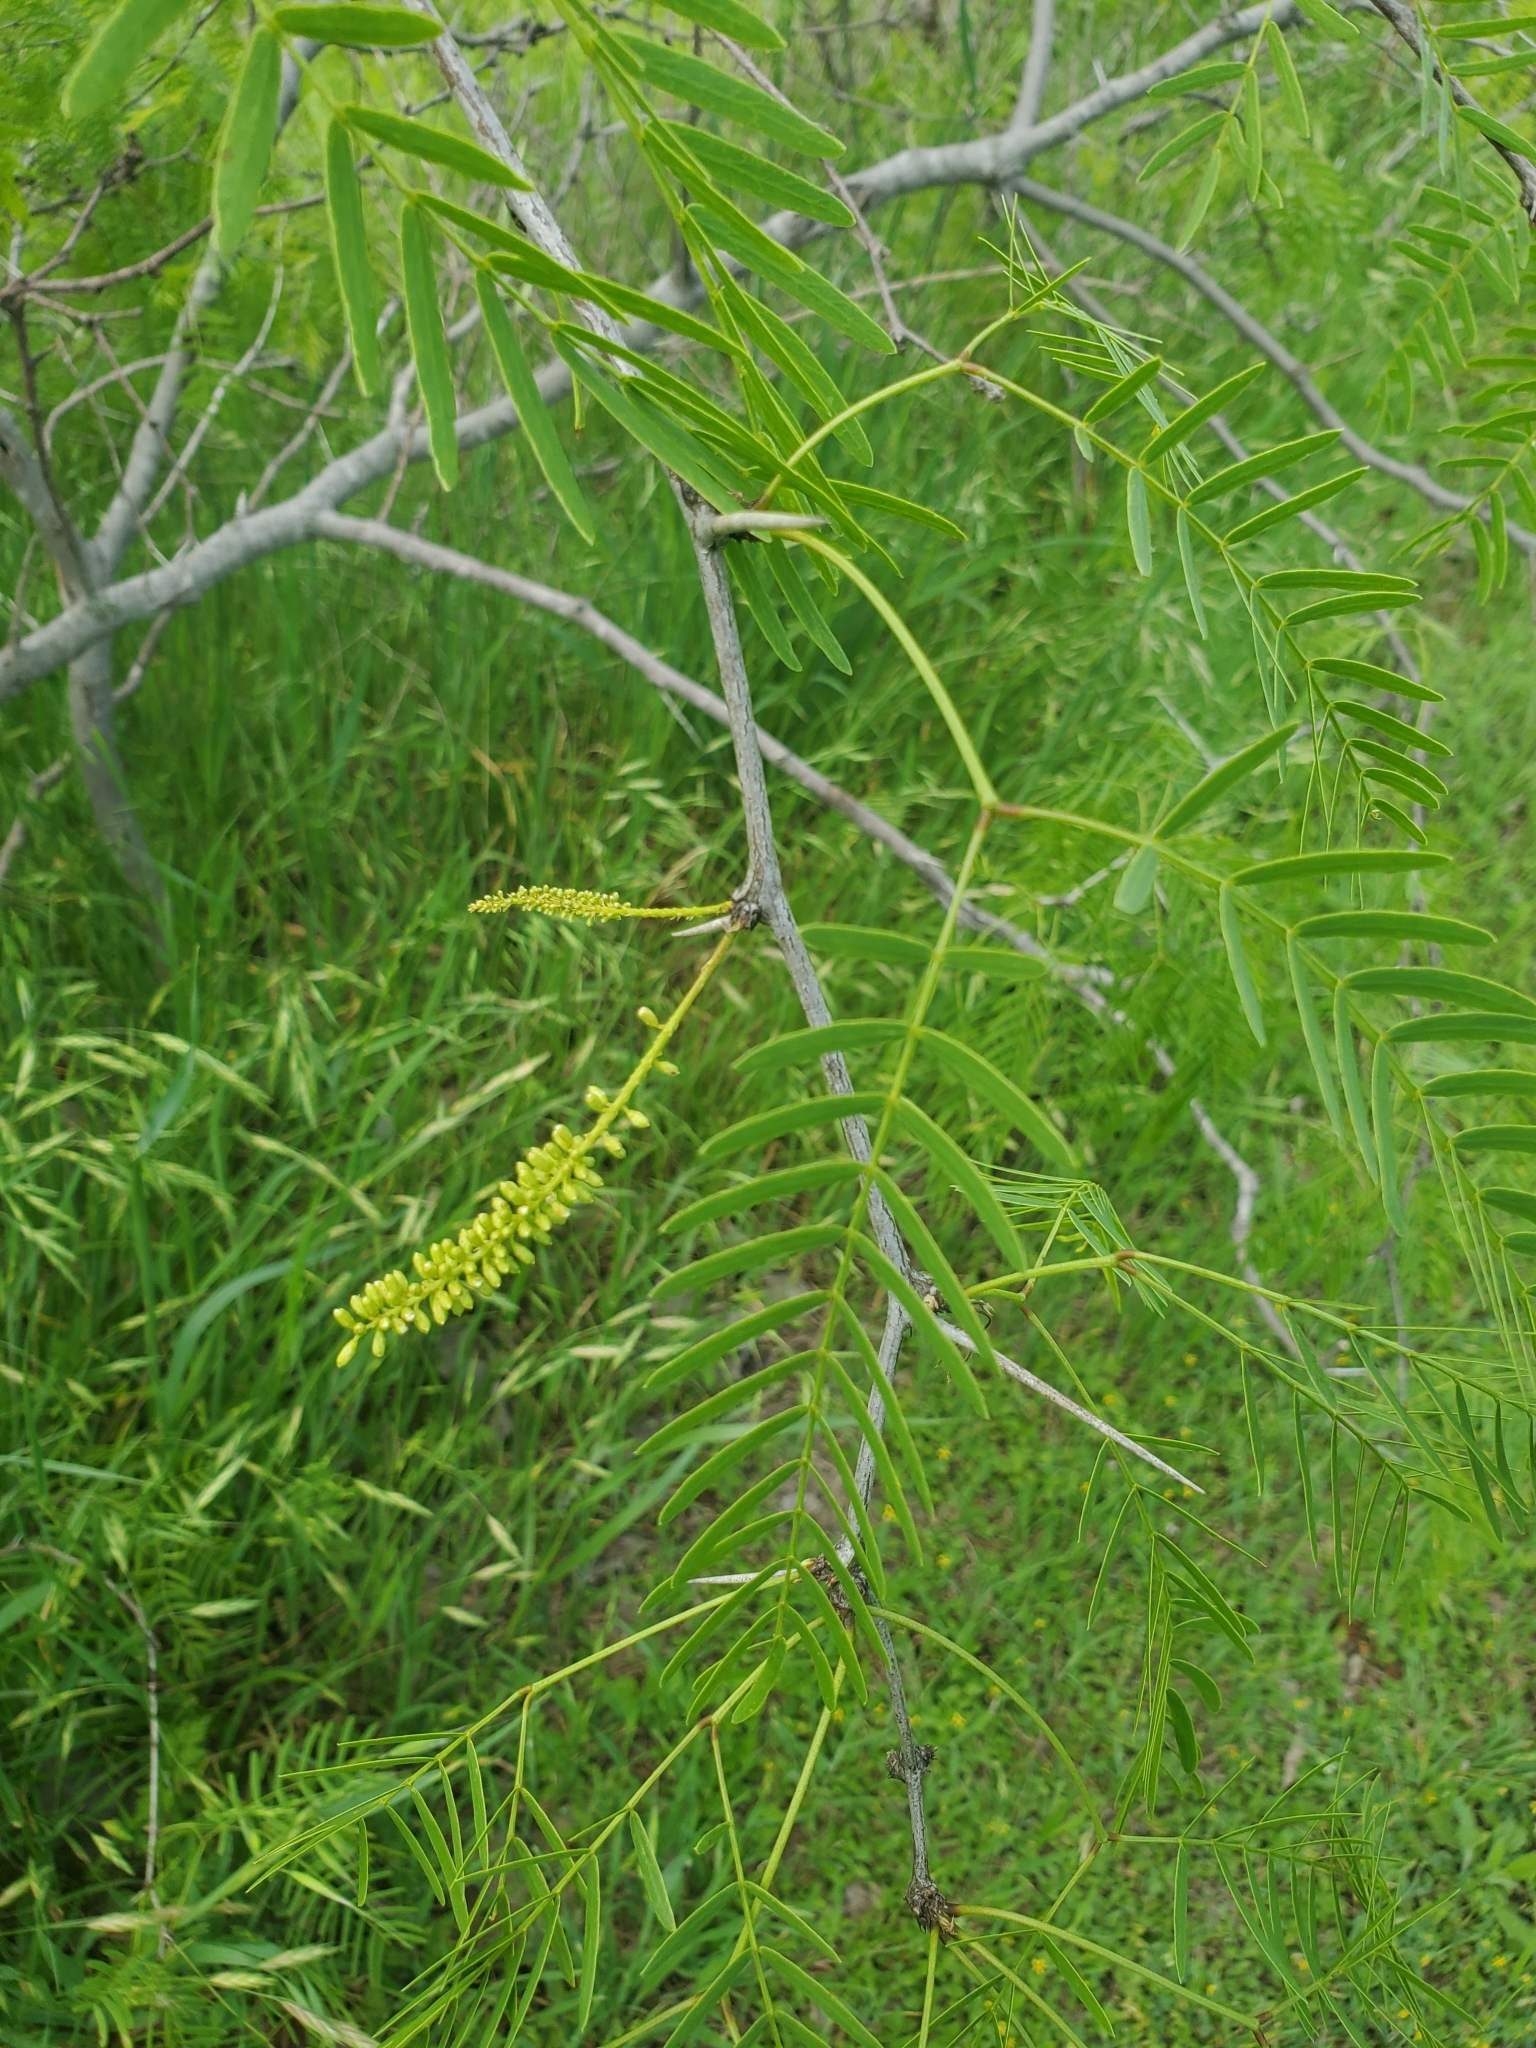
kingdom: Plantae
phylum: Tracheophyta
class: Magnoliopsida
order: Fabales
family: Fabaceae
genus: Prosopis
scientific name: Prosopis glandulosa
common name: Honey mesquite
